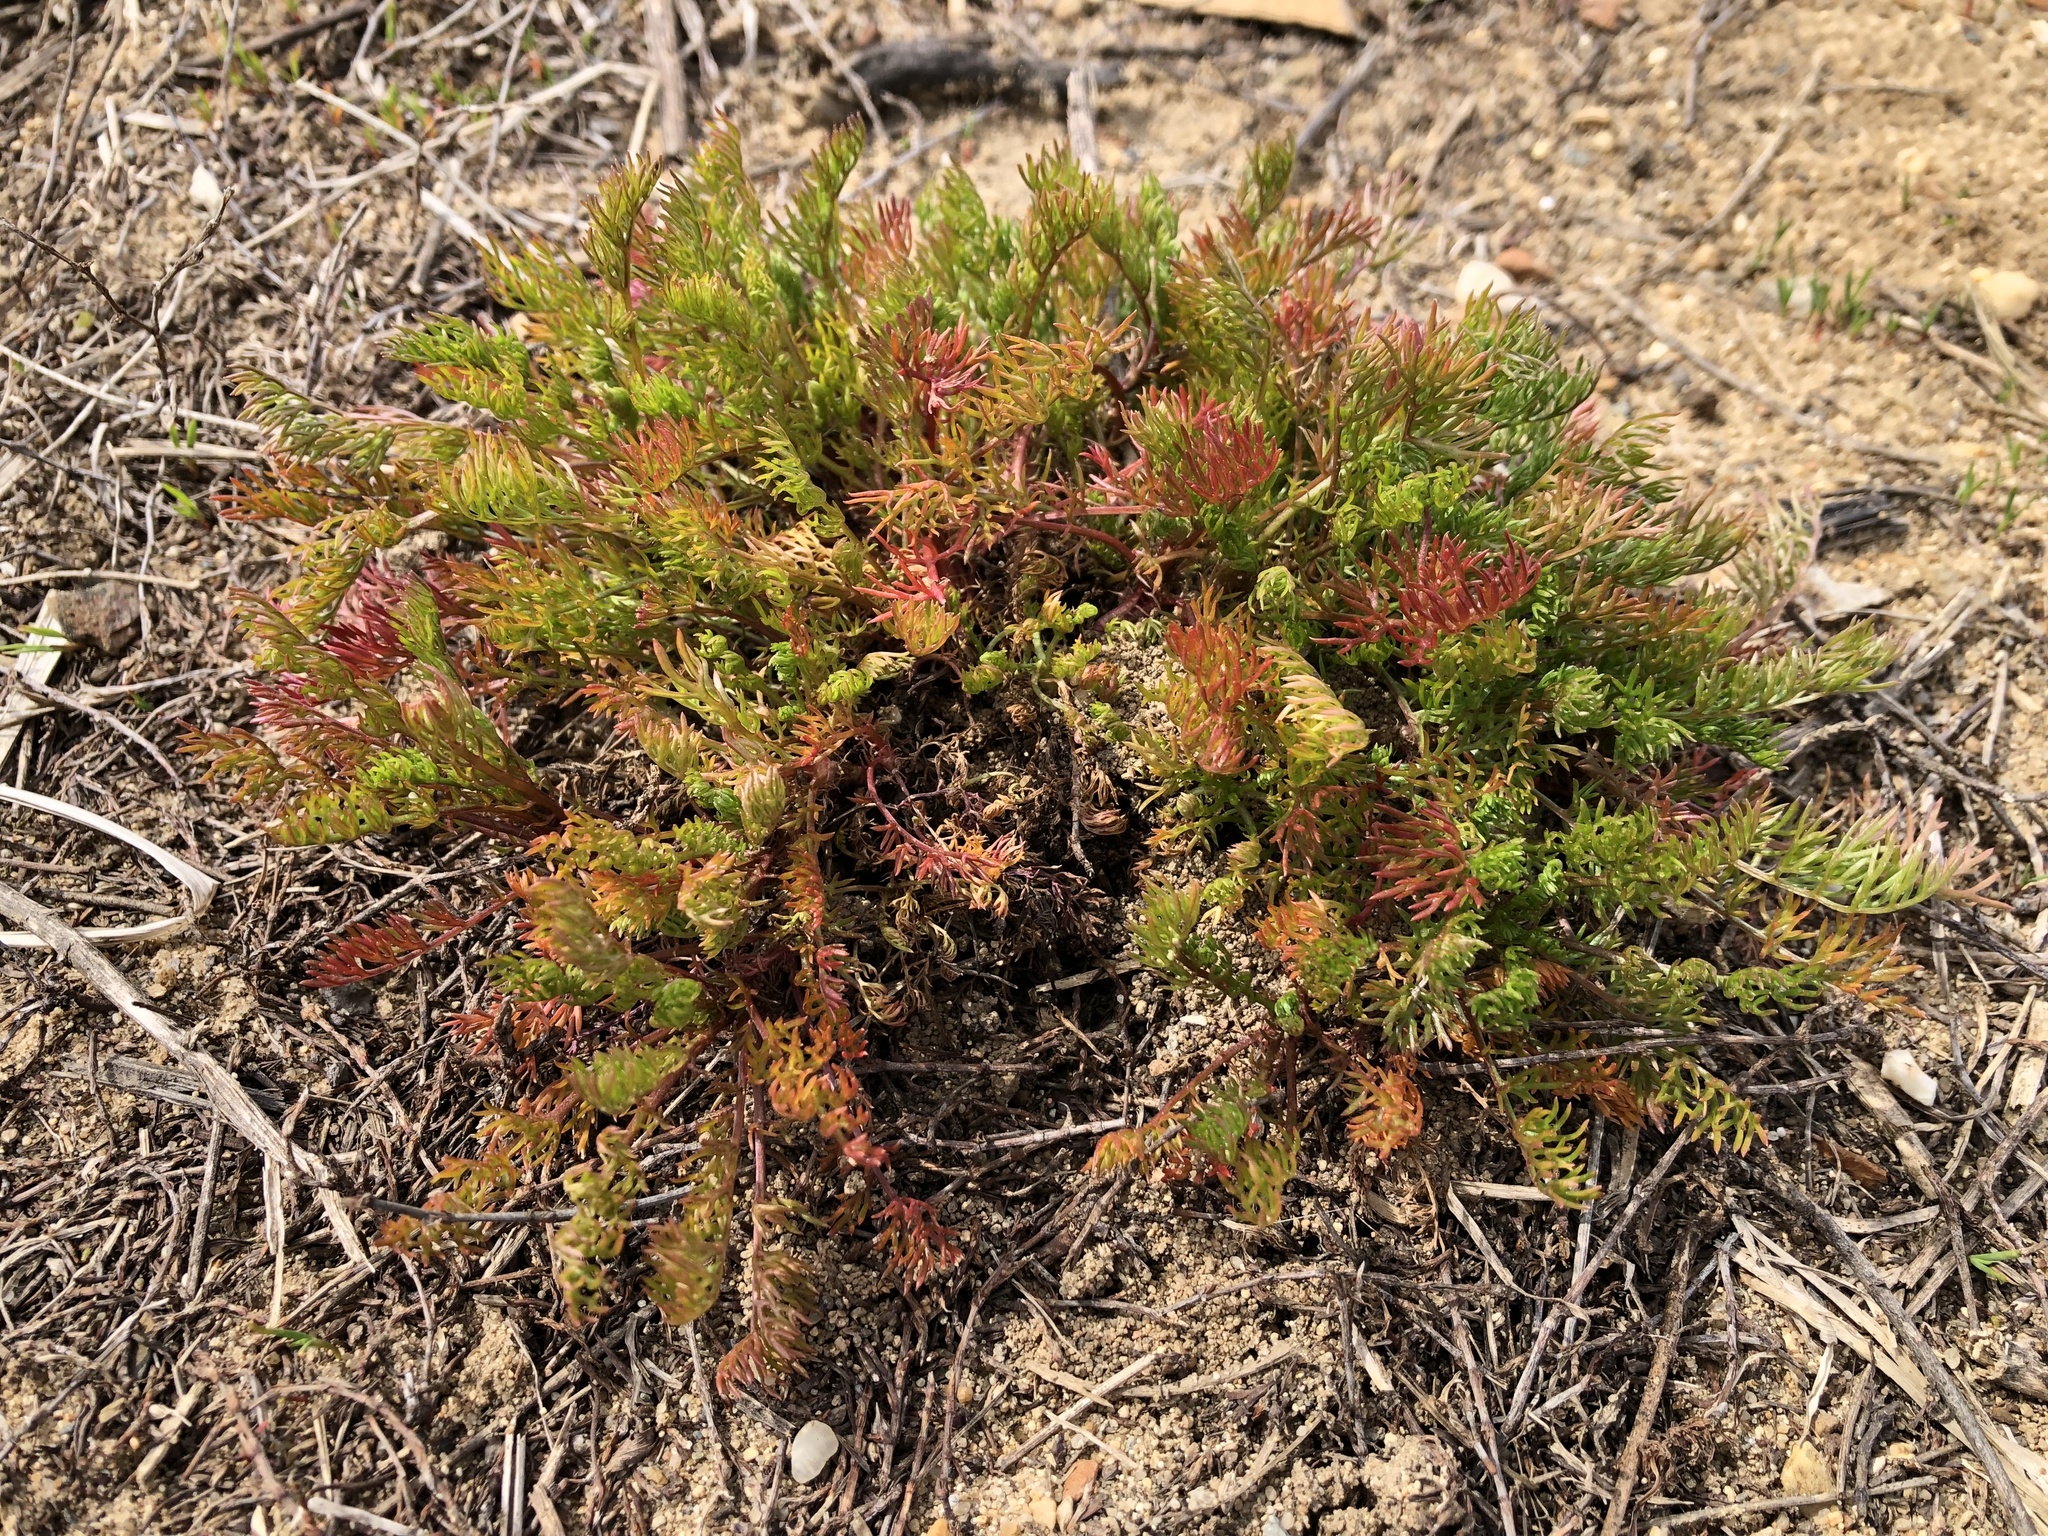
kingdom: Plantae
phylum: Tracheophyta
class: Magnoliopsida
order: Asterales
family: Asteraceae
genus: Tripleurospermum
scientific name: Tripleurospermum inodorum
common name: Scentless mayweed
